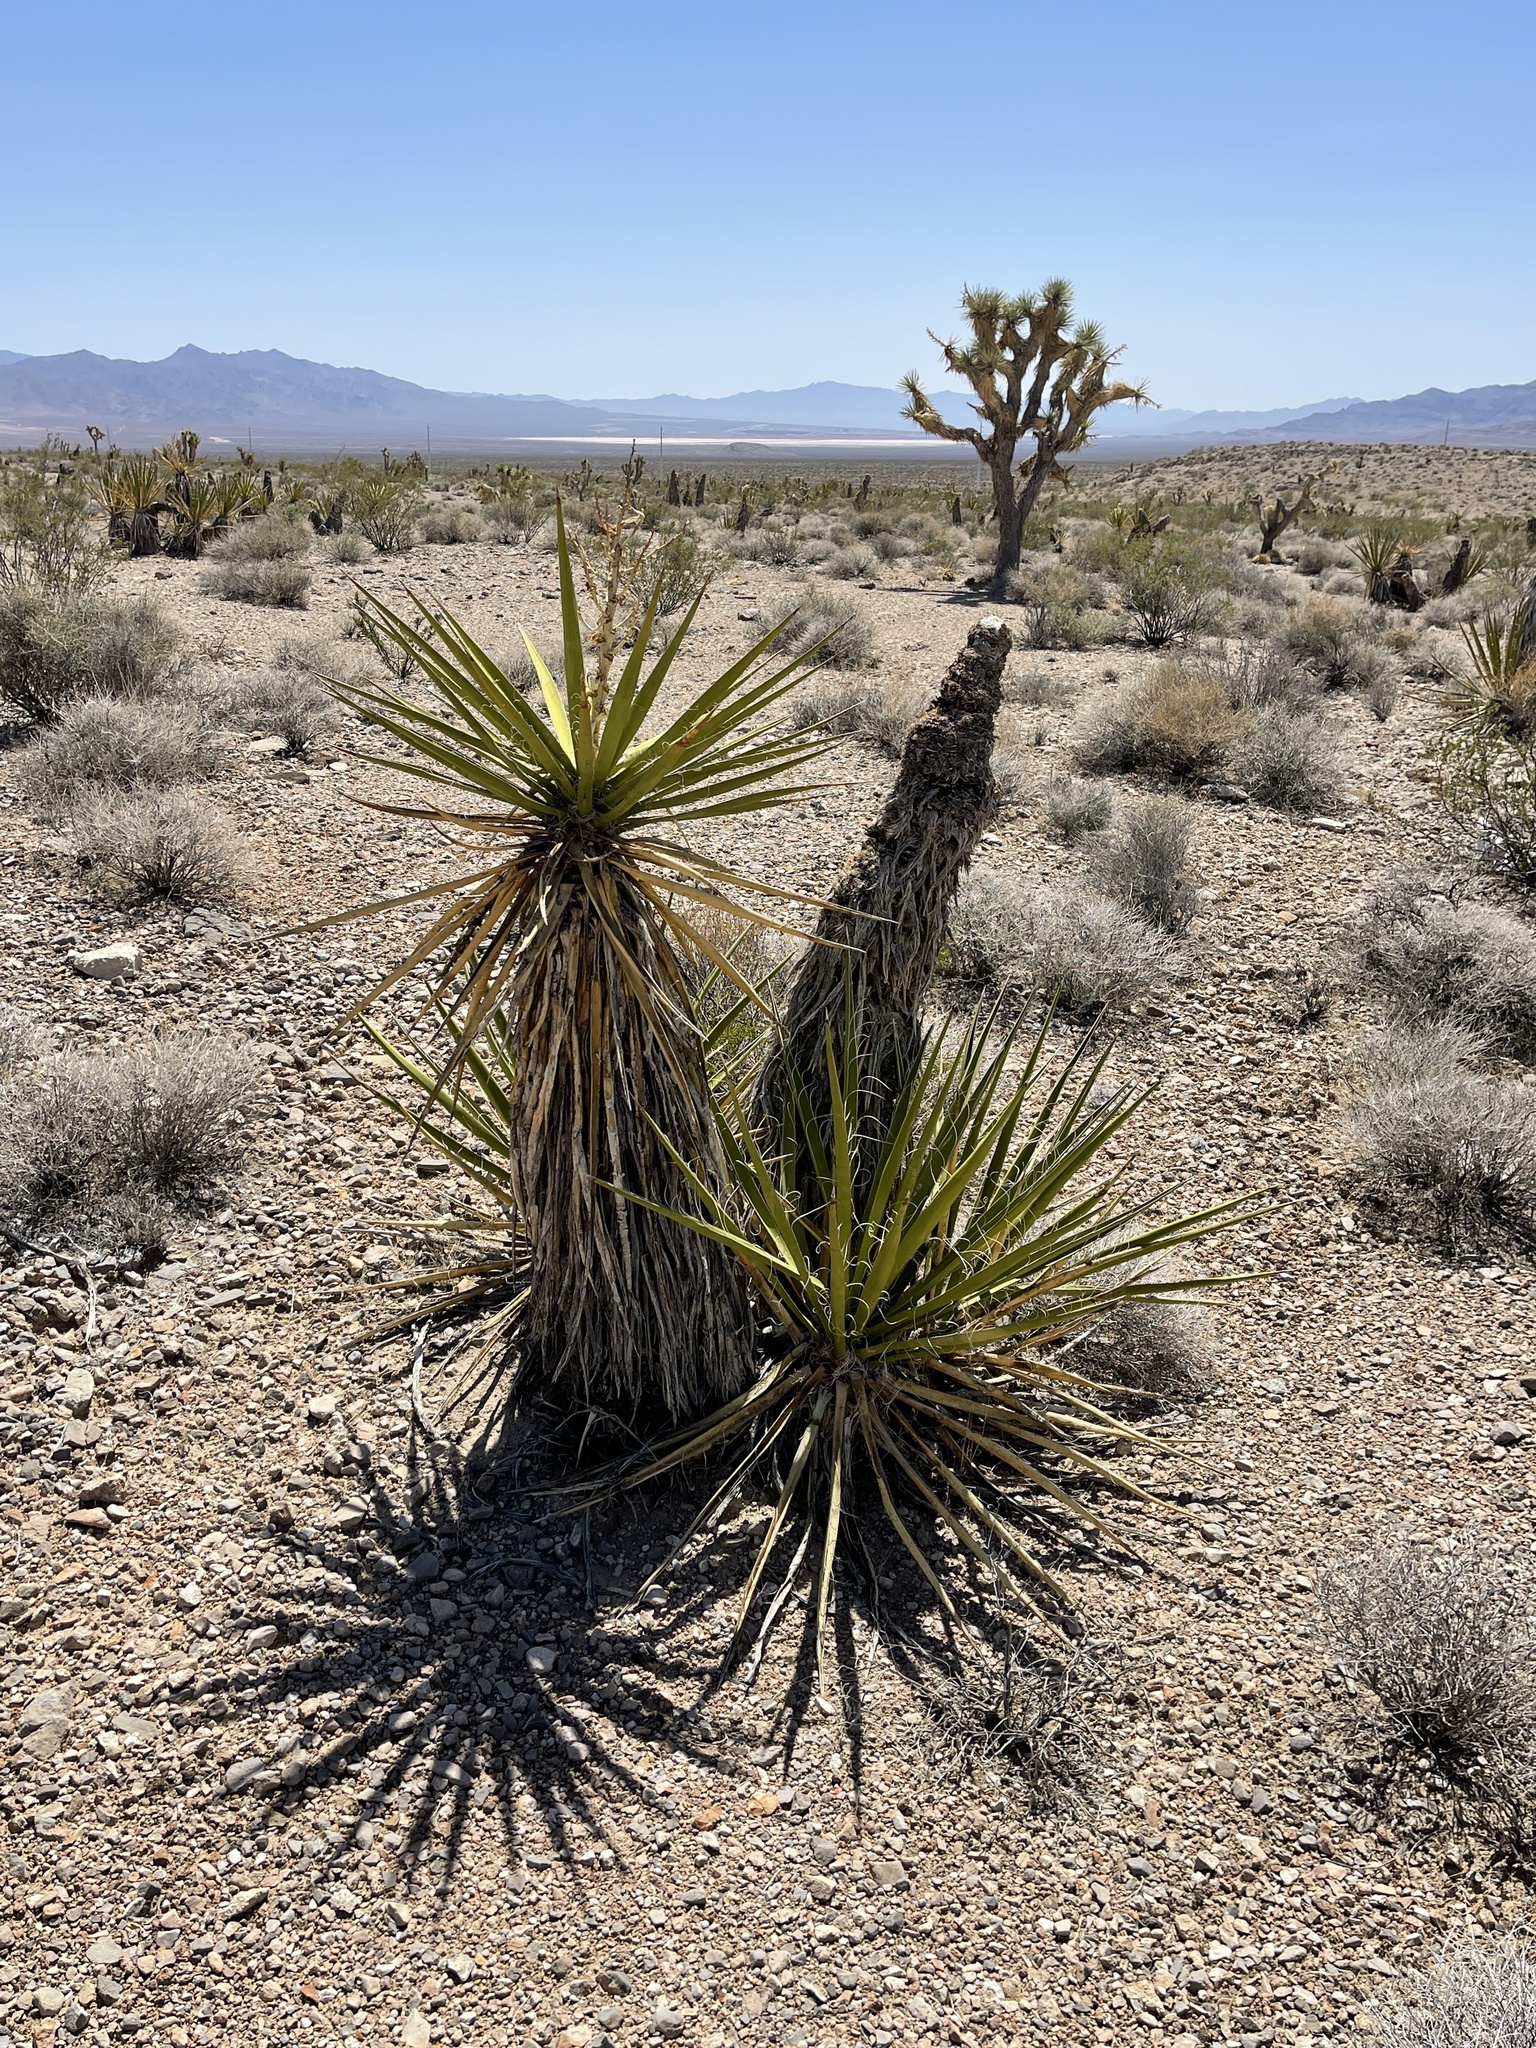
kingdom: Plantae
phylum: Tracheophyta
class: Liliopsida
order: Asparagales
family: Asparagaceae
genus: Yucca
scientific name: Yucca schidigera
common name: Mojave yucca
